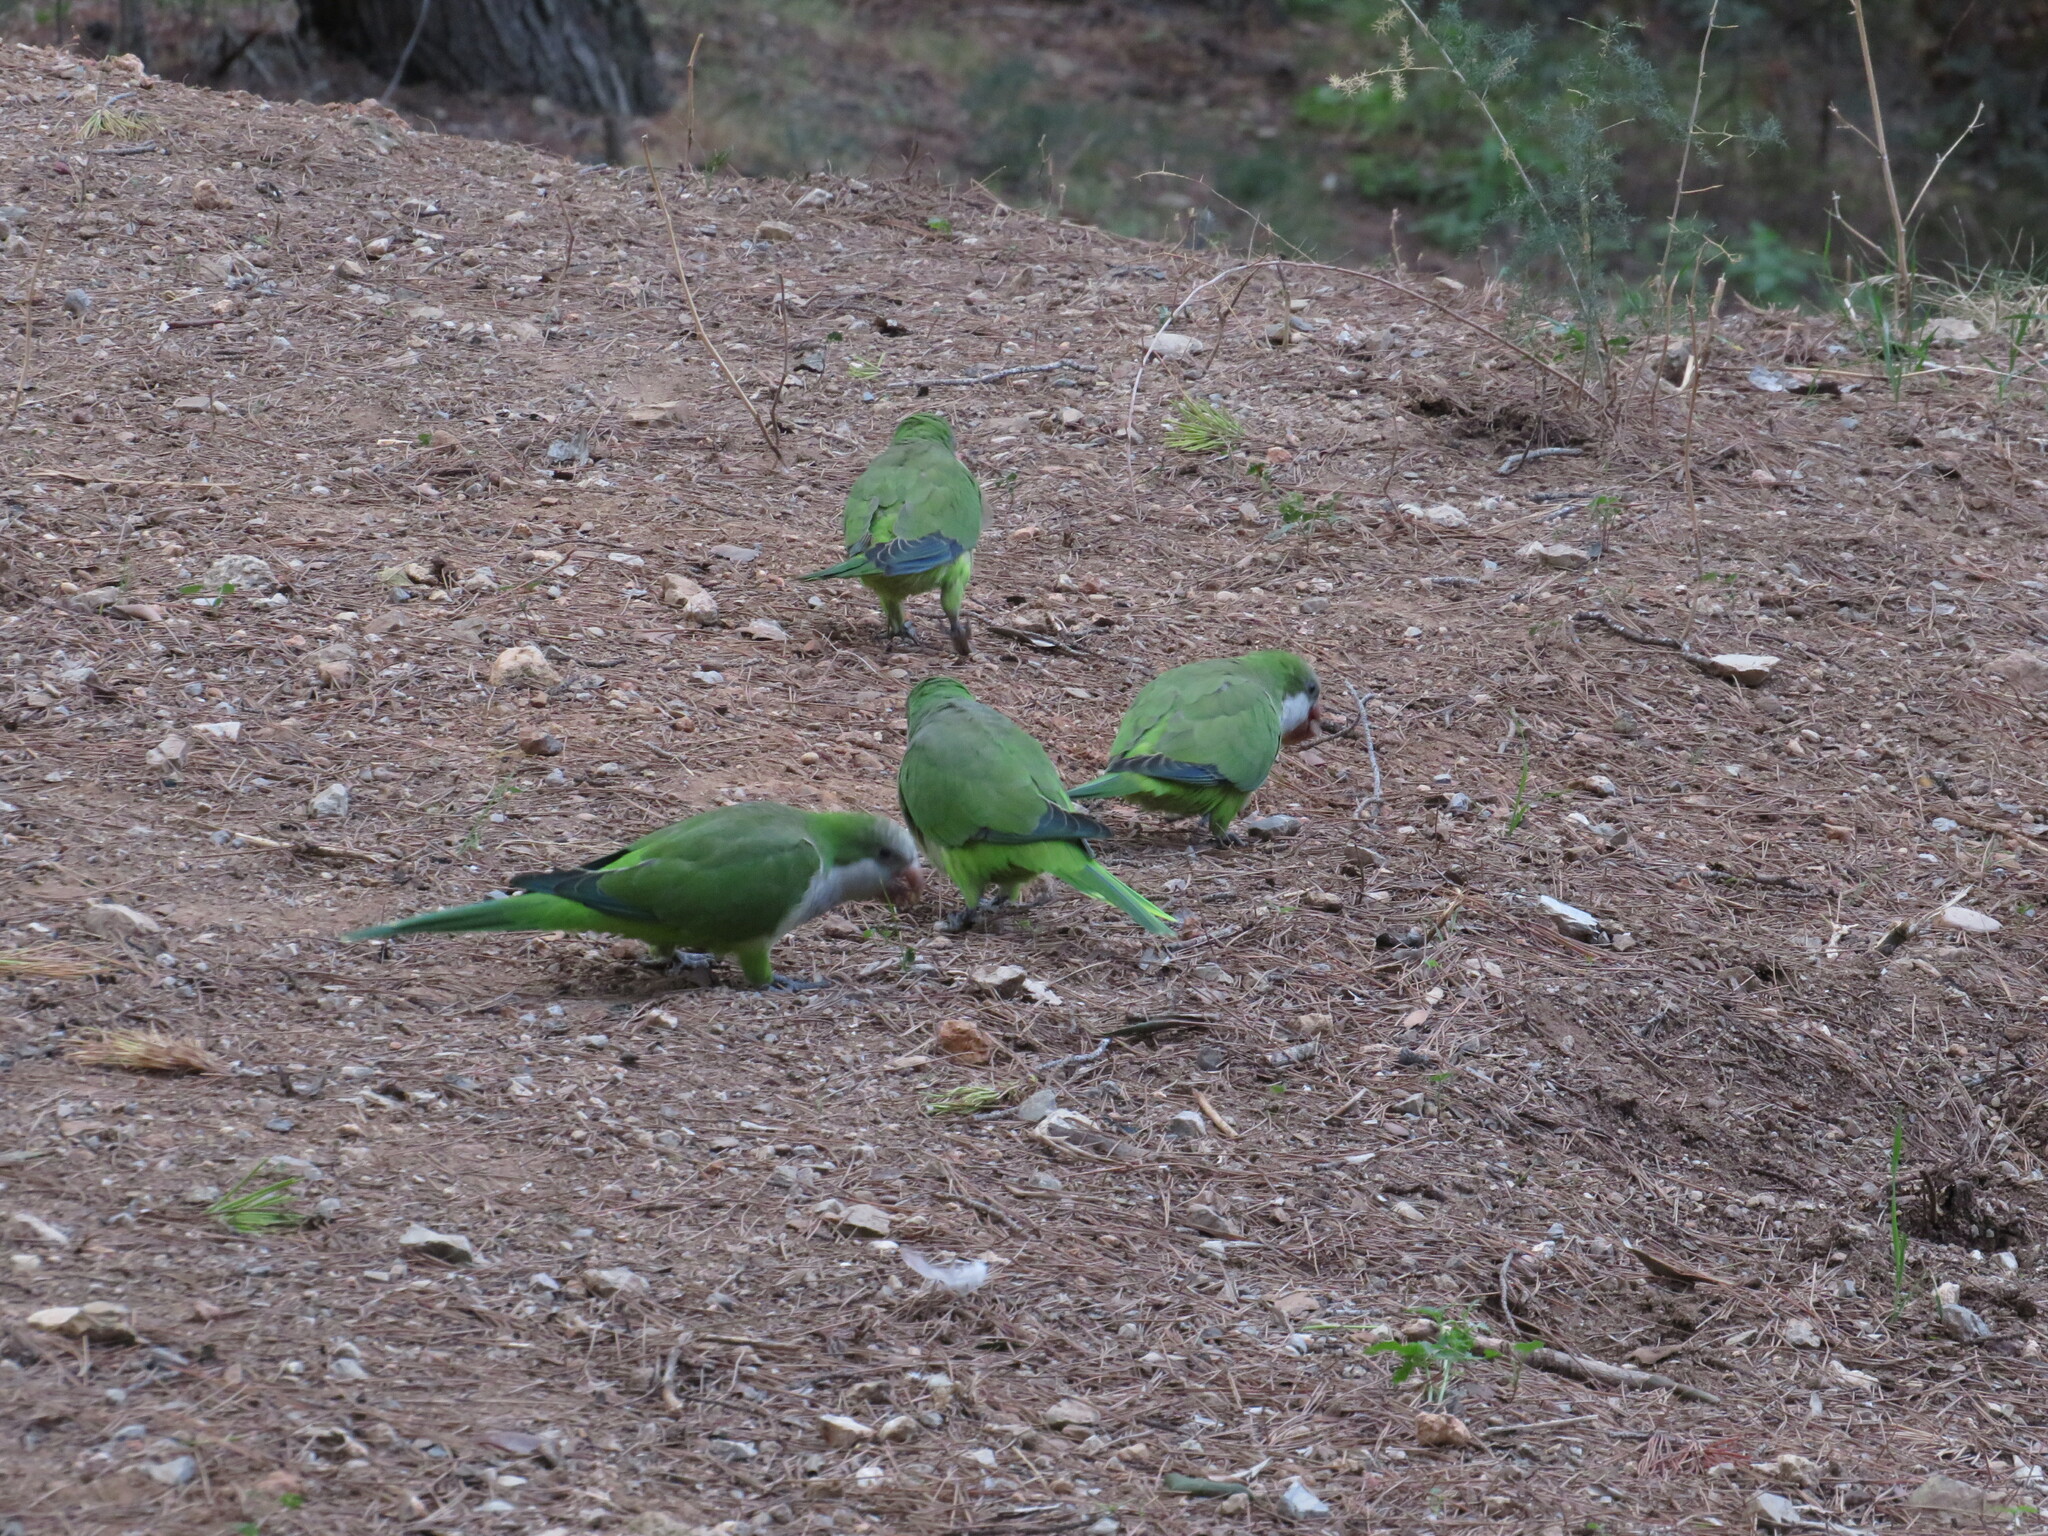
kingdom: Animalia
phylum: Chordata
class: Aves
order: Psittaciformes
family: Psittacidae
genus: Myiopsitta
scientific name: Myiopsitta monachus
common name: Monk parakeet
